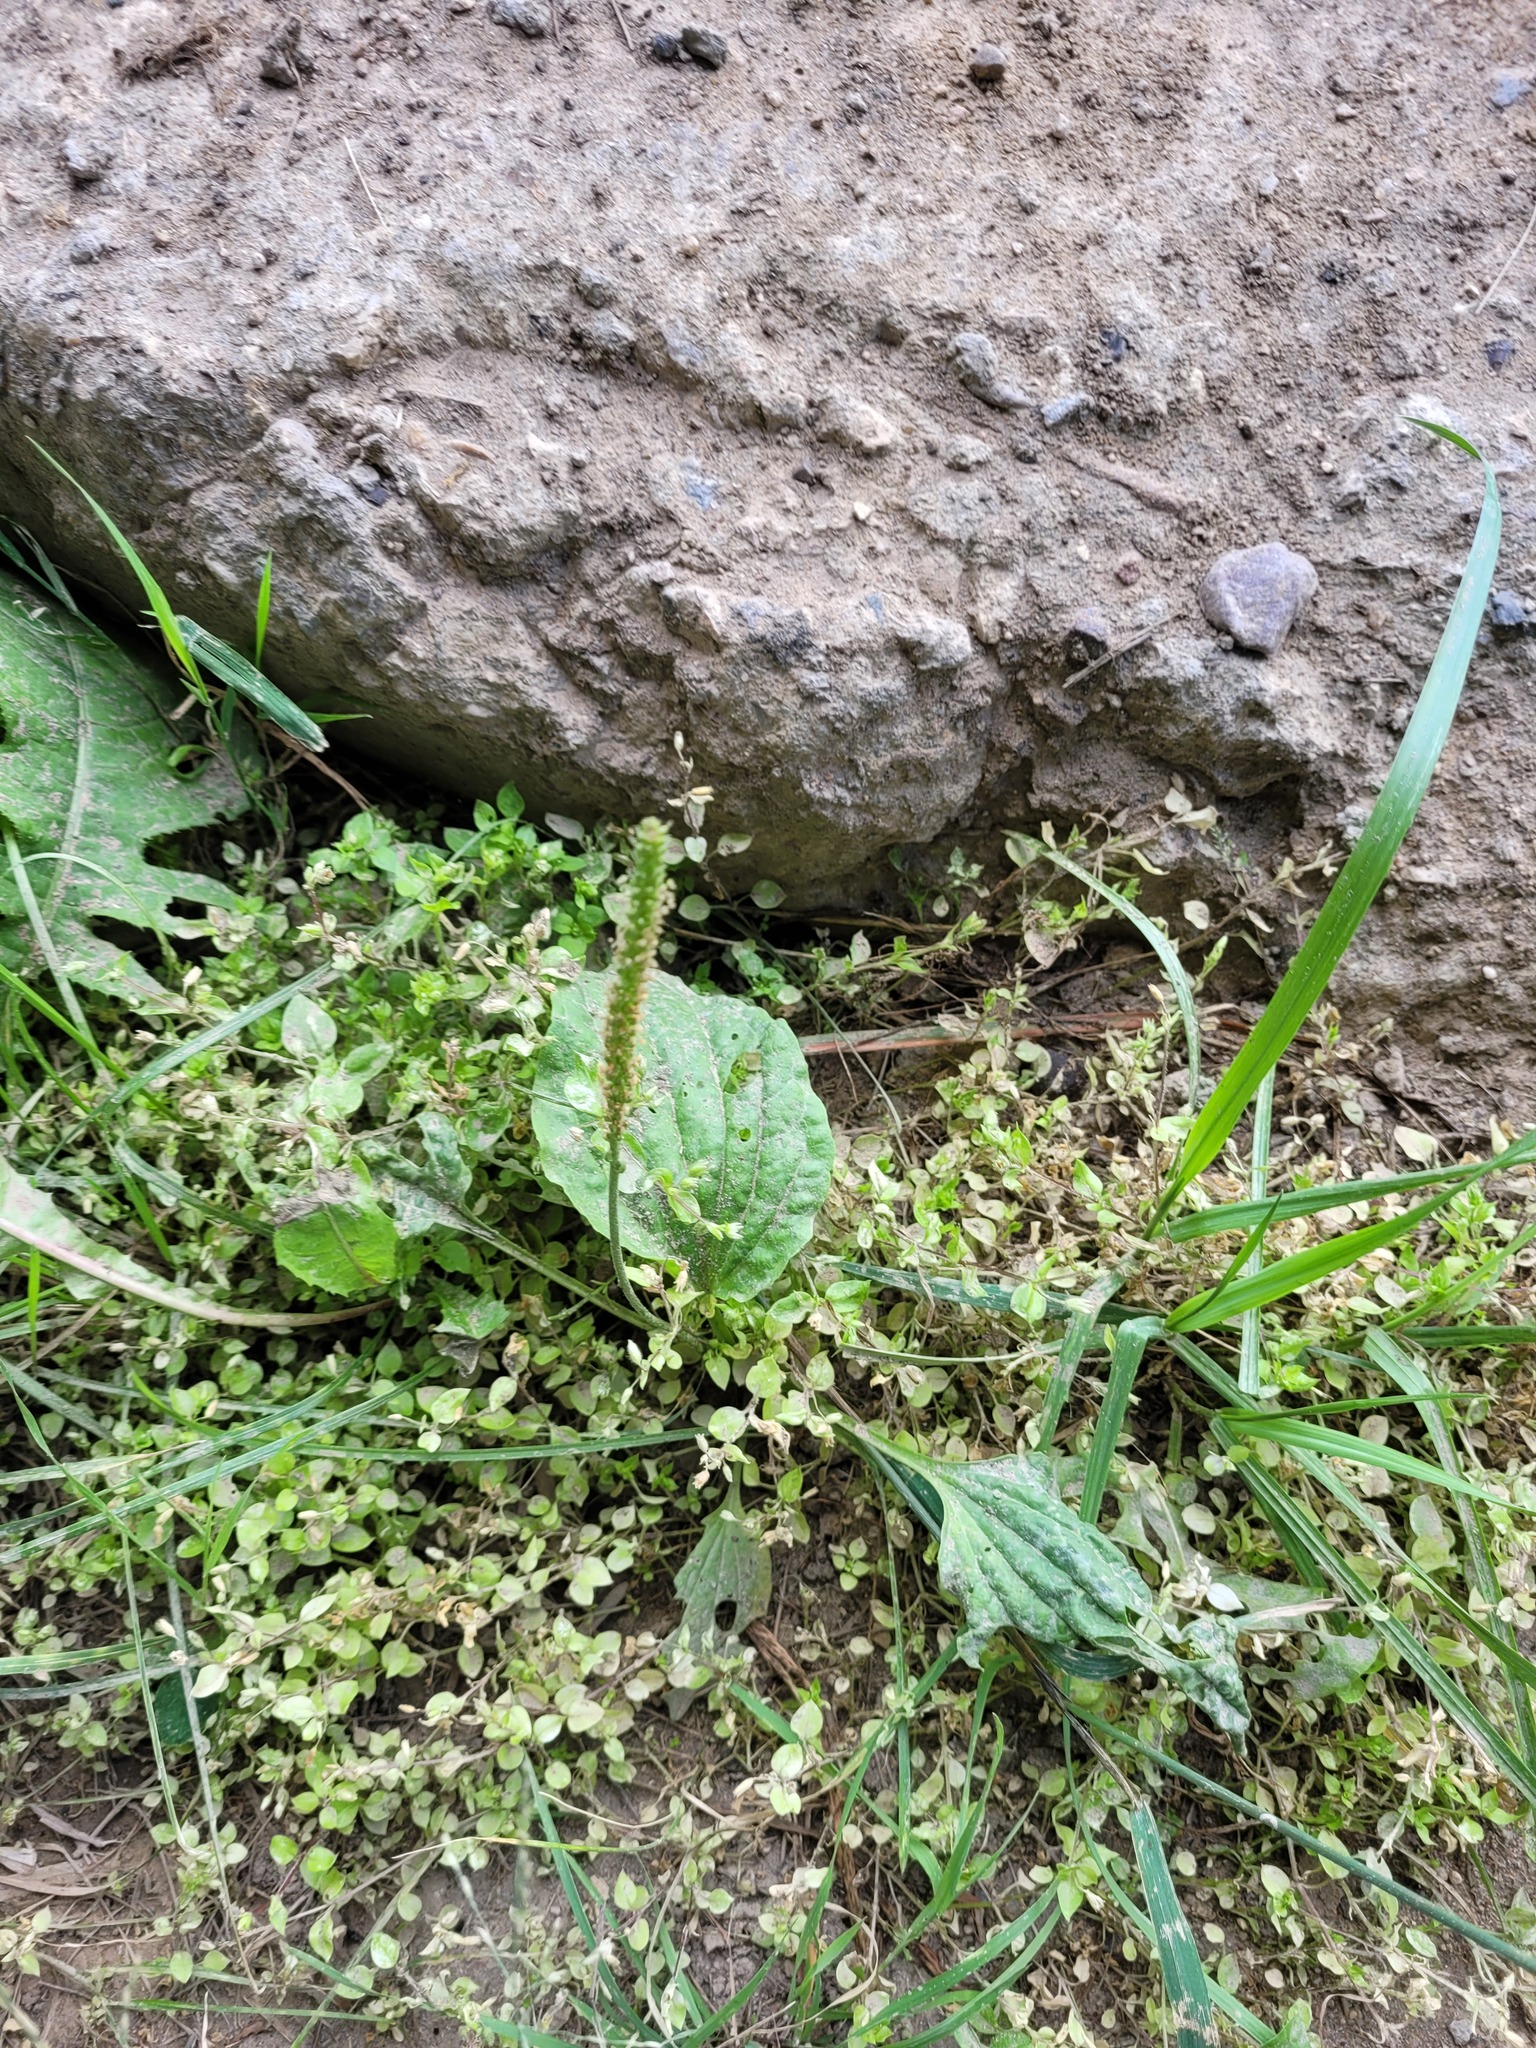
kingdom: Plantae
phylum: Tracheophyta
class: Magnoliopsida
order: Lamiales
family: Plantaginaceae
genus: Plantago
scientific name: Plantago major
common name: Common plantain
